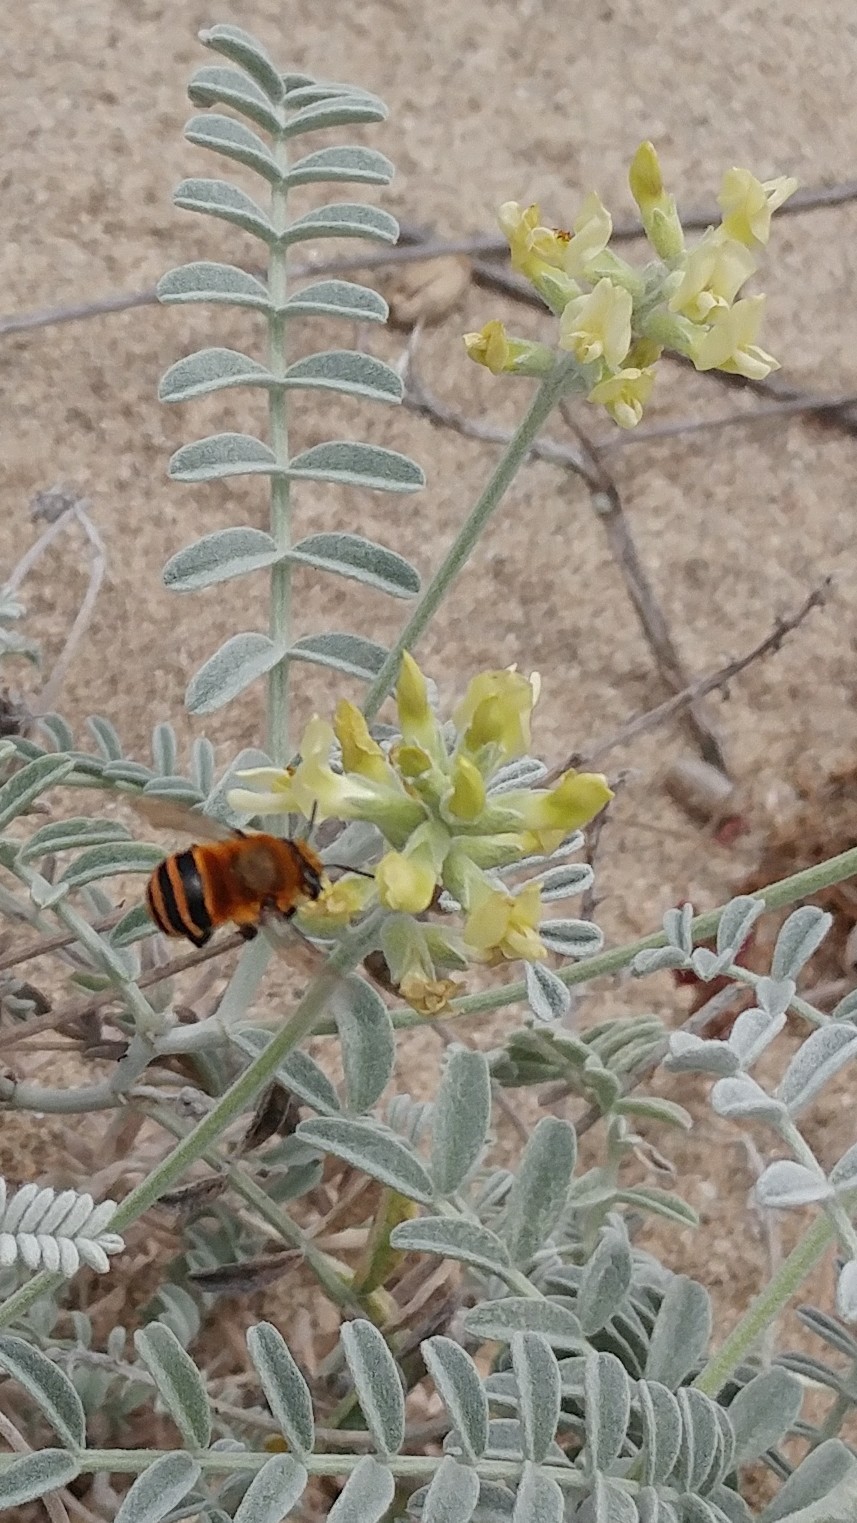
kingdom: Animalia
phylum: Arthropoda
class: Insecta
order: Hymenoptera
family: Apidae
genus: Anthophora
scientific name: Anthophora urbana
